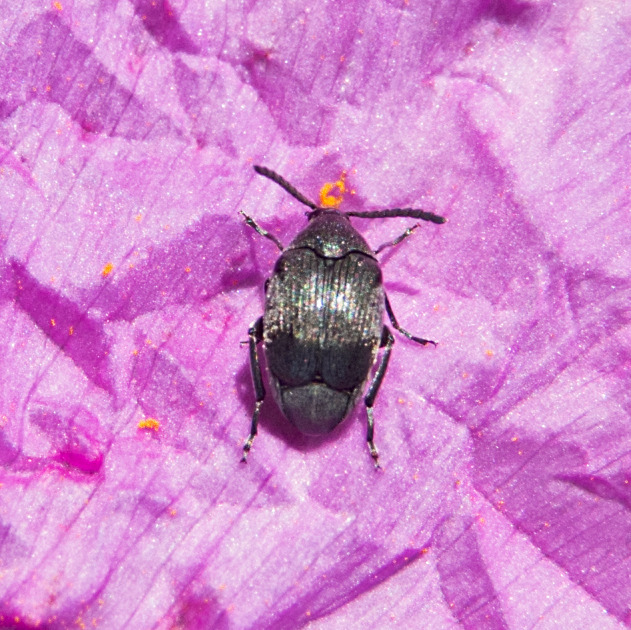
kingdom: Animalia
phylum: Arthropoda
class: Insecta
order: Coleoptera
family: Chrysomelidae
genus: Bruchidius
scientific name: Bruchidius villosus
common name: Scotch broom bruchid
